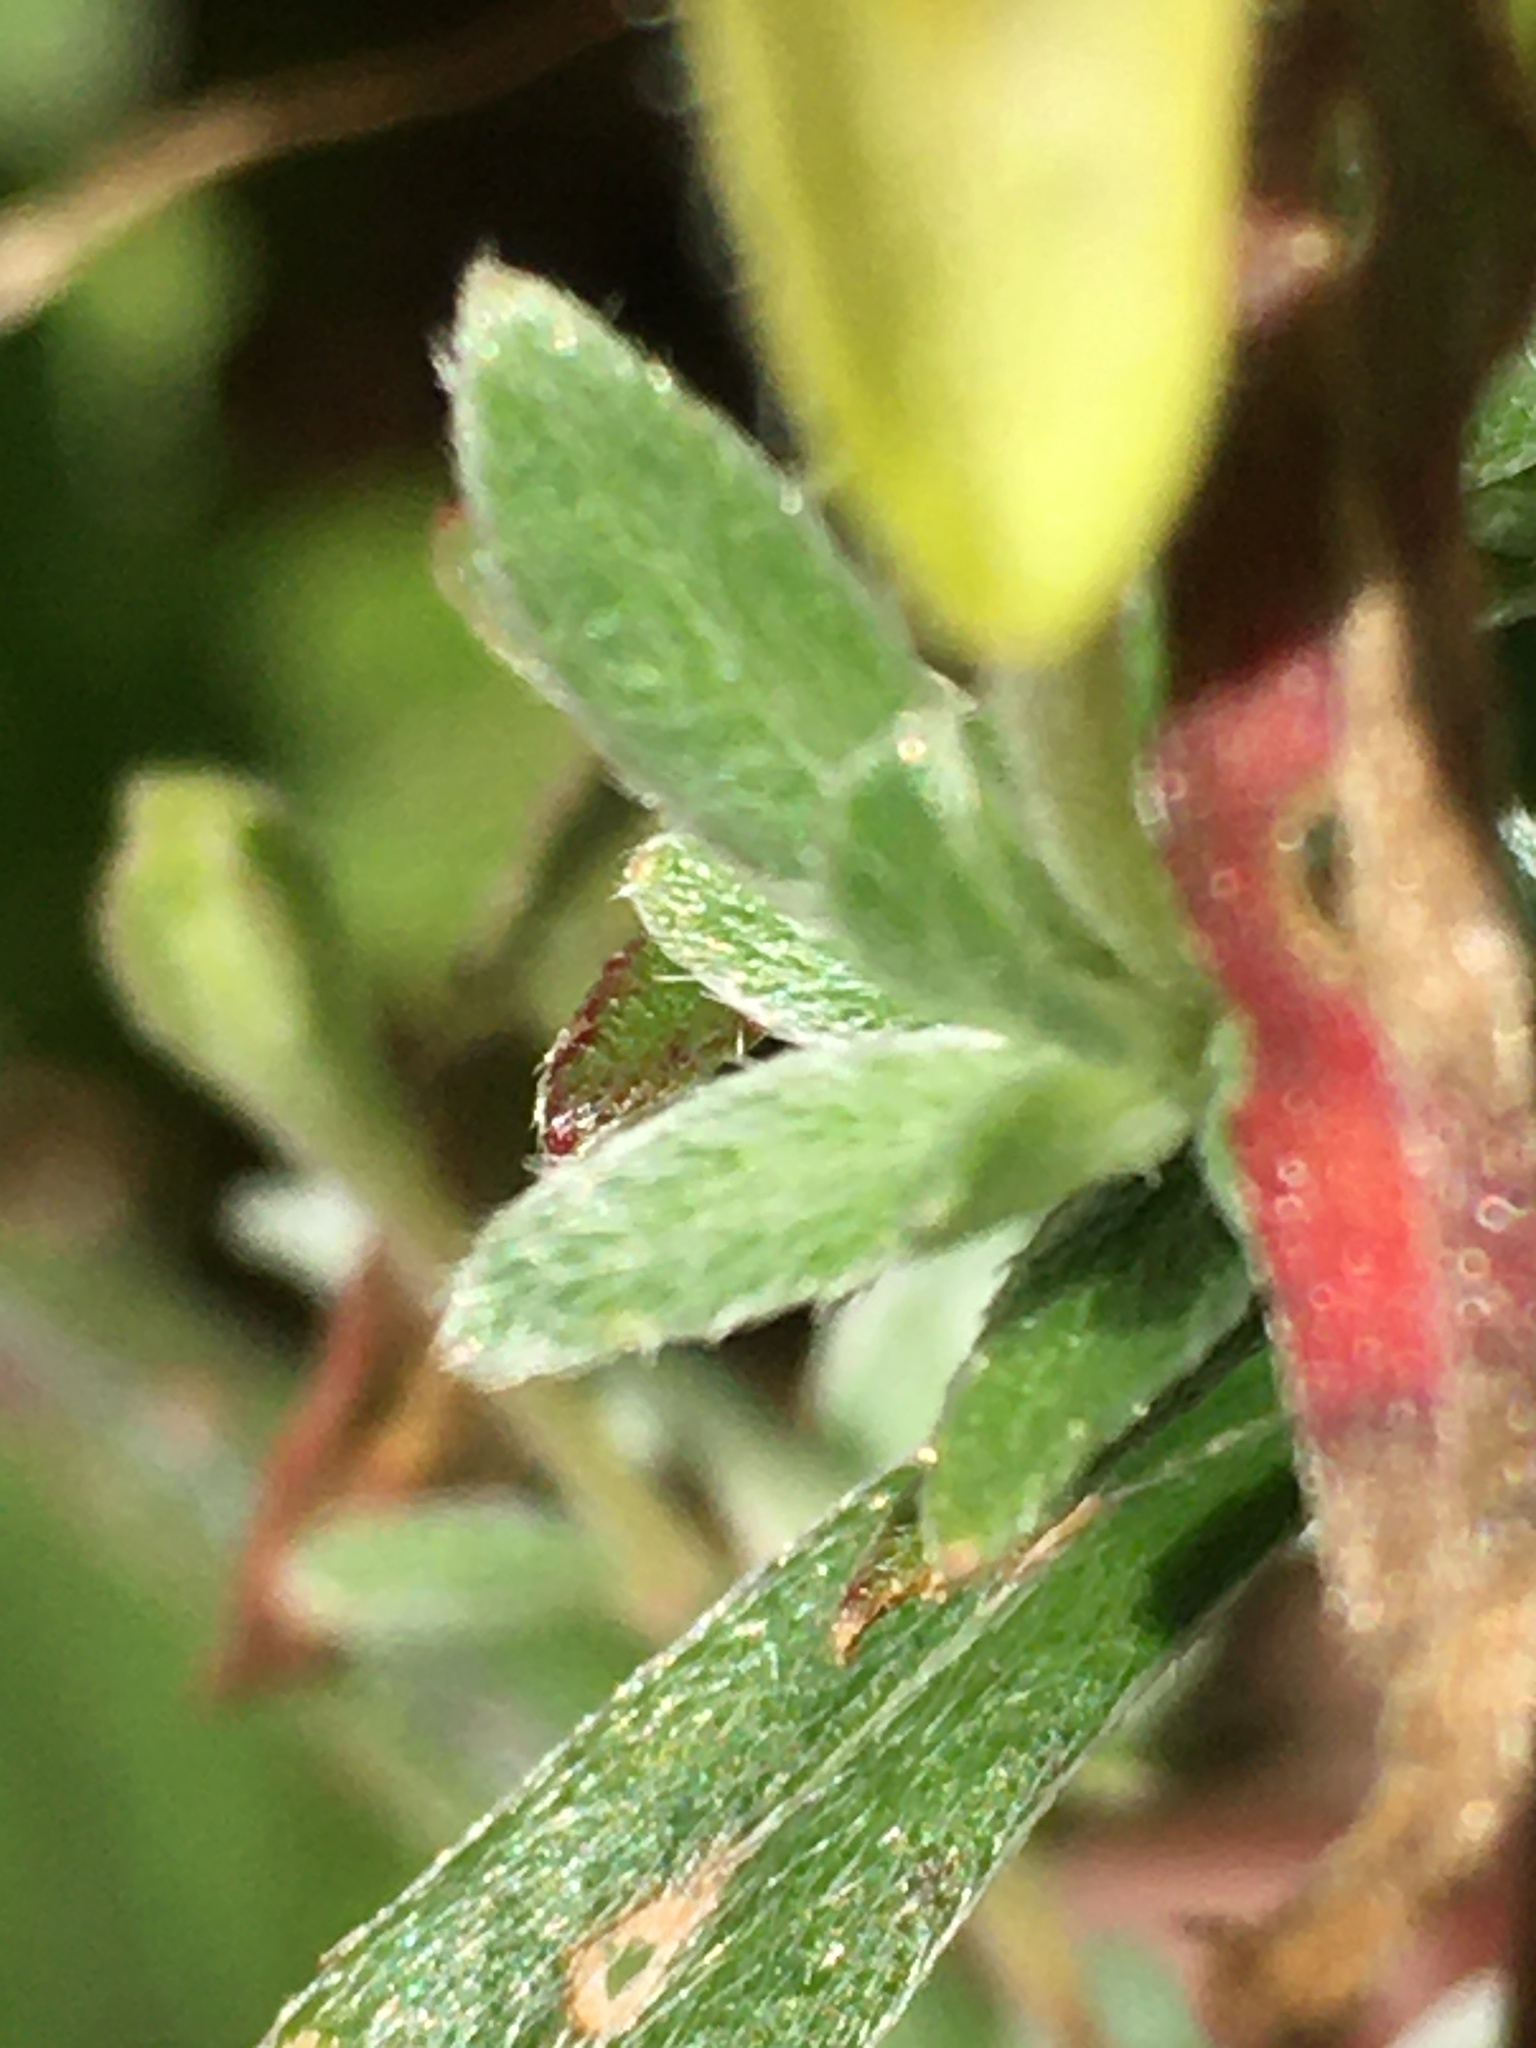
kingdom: Plantae
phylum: Tracheophyta
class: Magnoliopsida
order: Myrtales
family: Onagraceae
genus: Oenothera
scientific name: Oenothera fruticosa
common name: Southern sundrops
